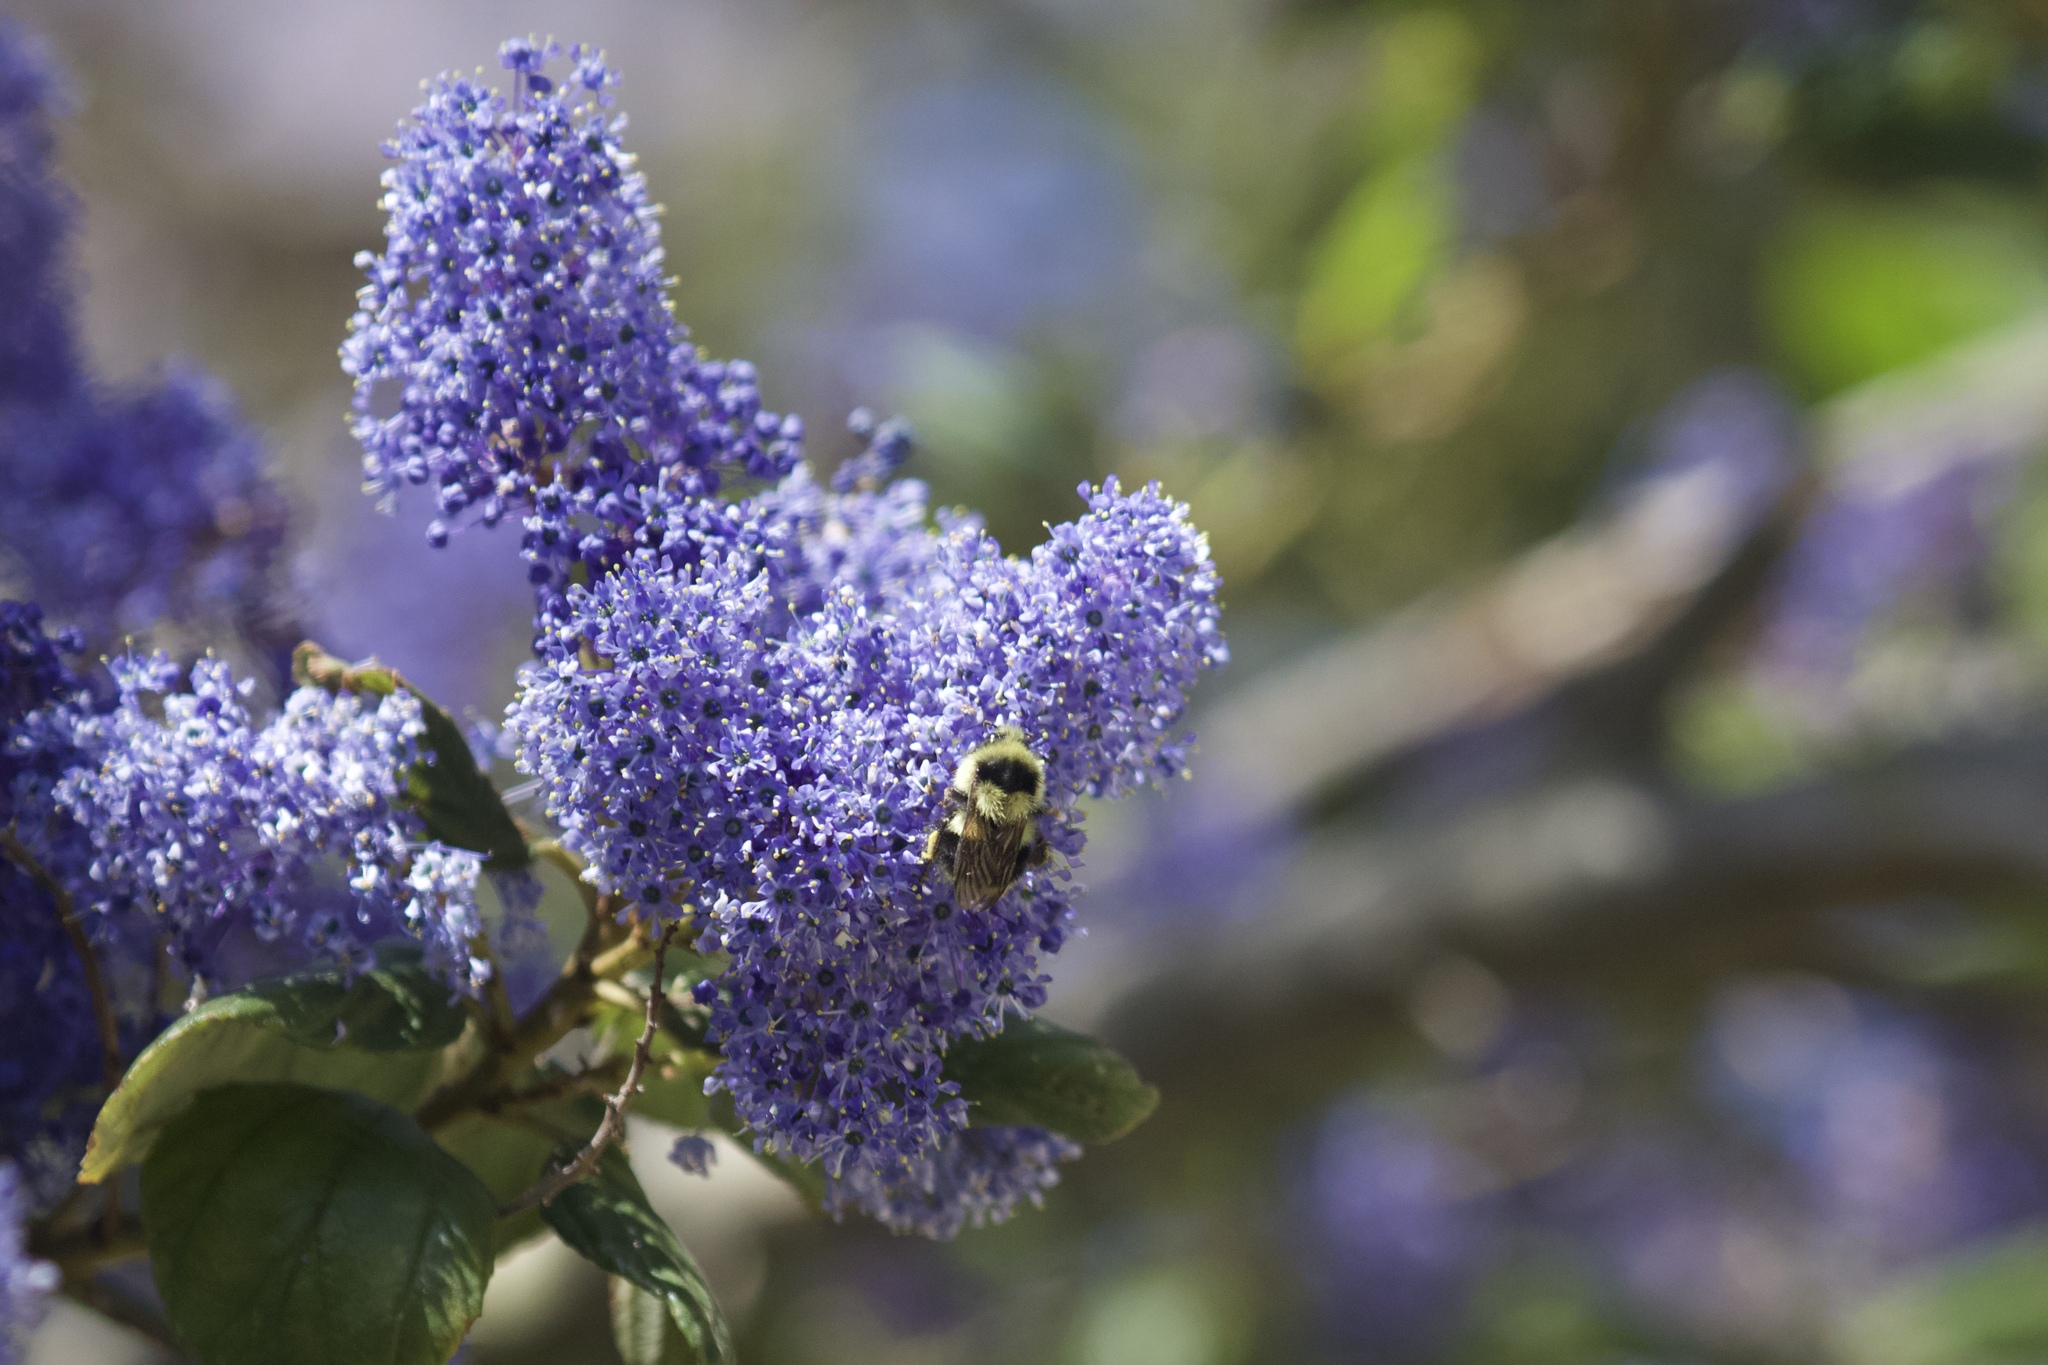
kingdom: Animalia
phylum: Arthropoda
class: Insecta
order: Hymenoptera
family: Apidae
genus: Bombus
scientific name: Bombus melanopygus
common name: Black tail bumble bee
